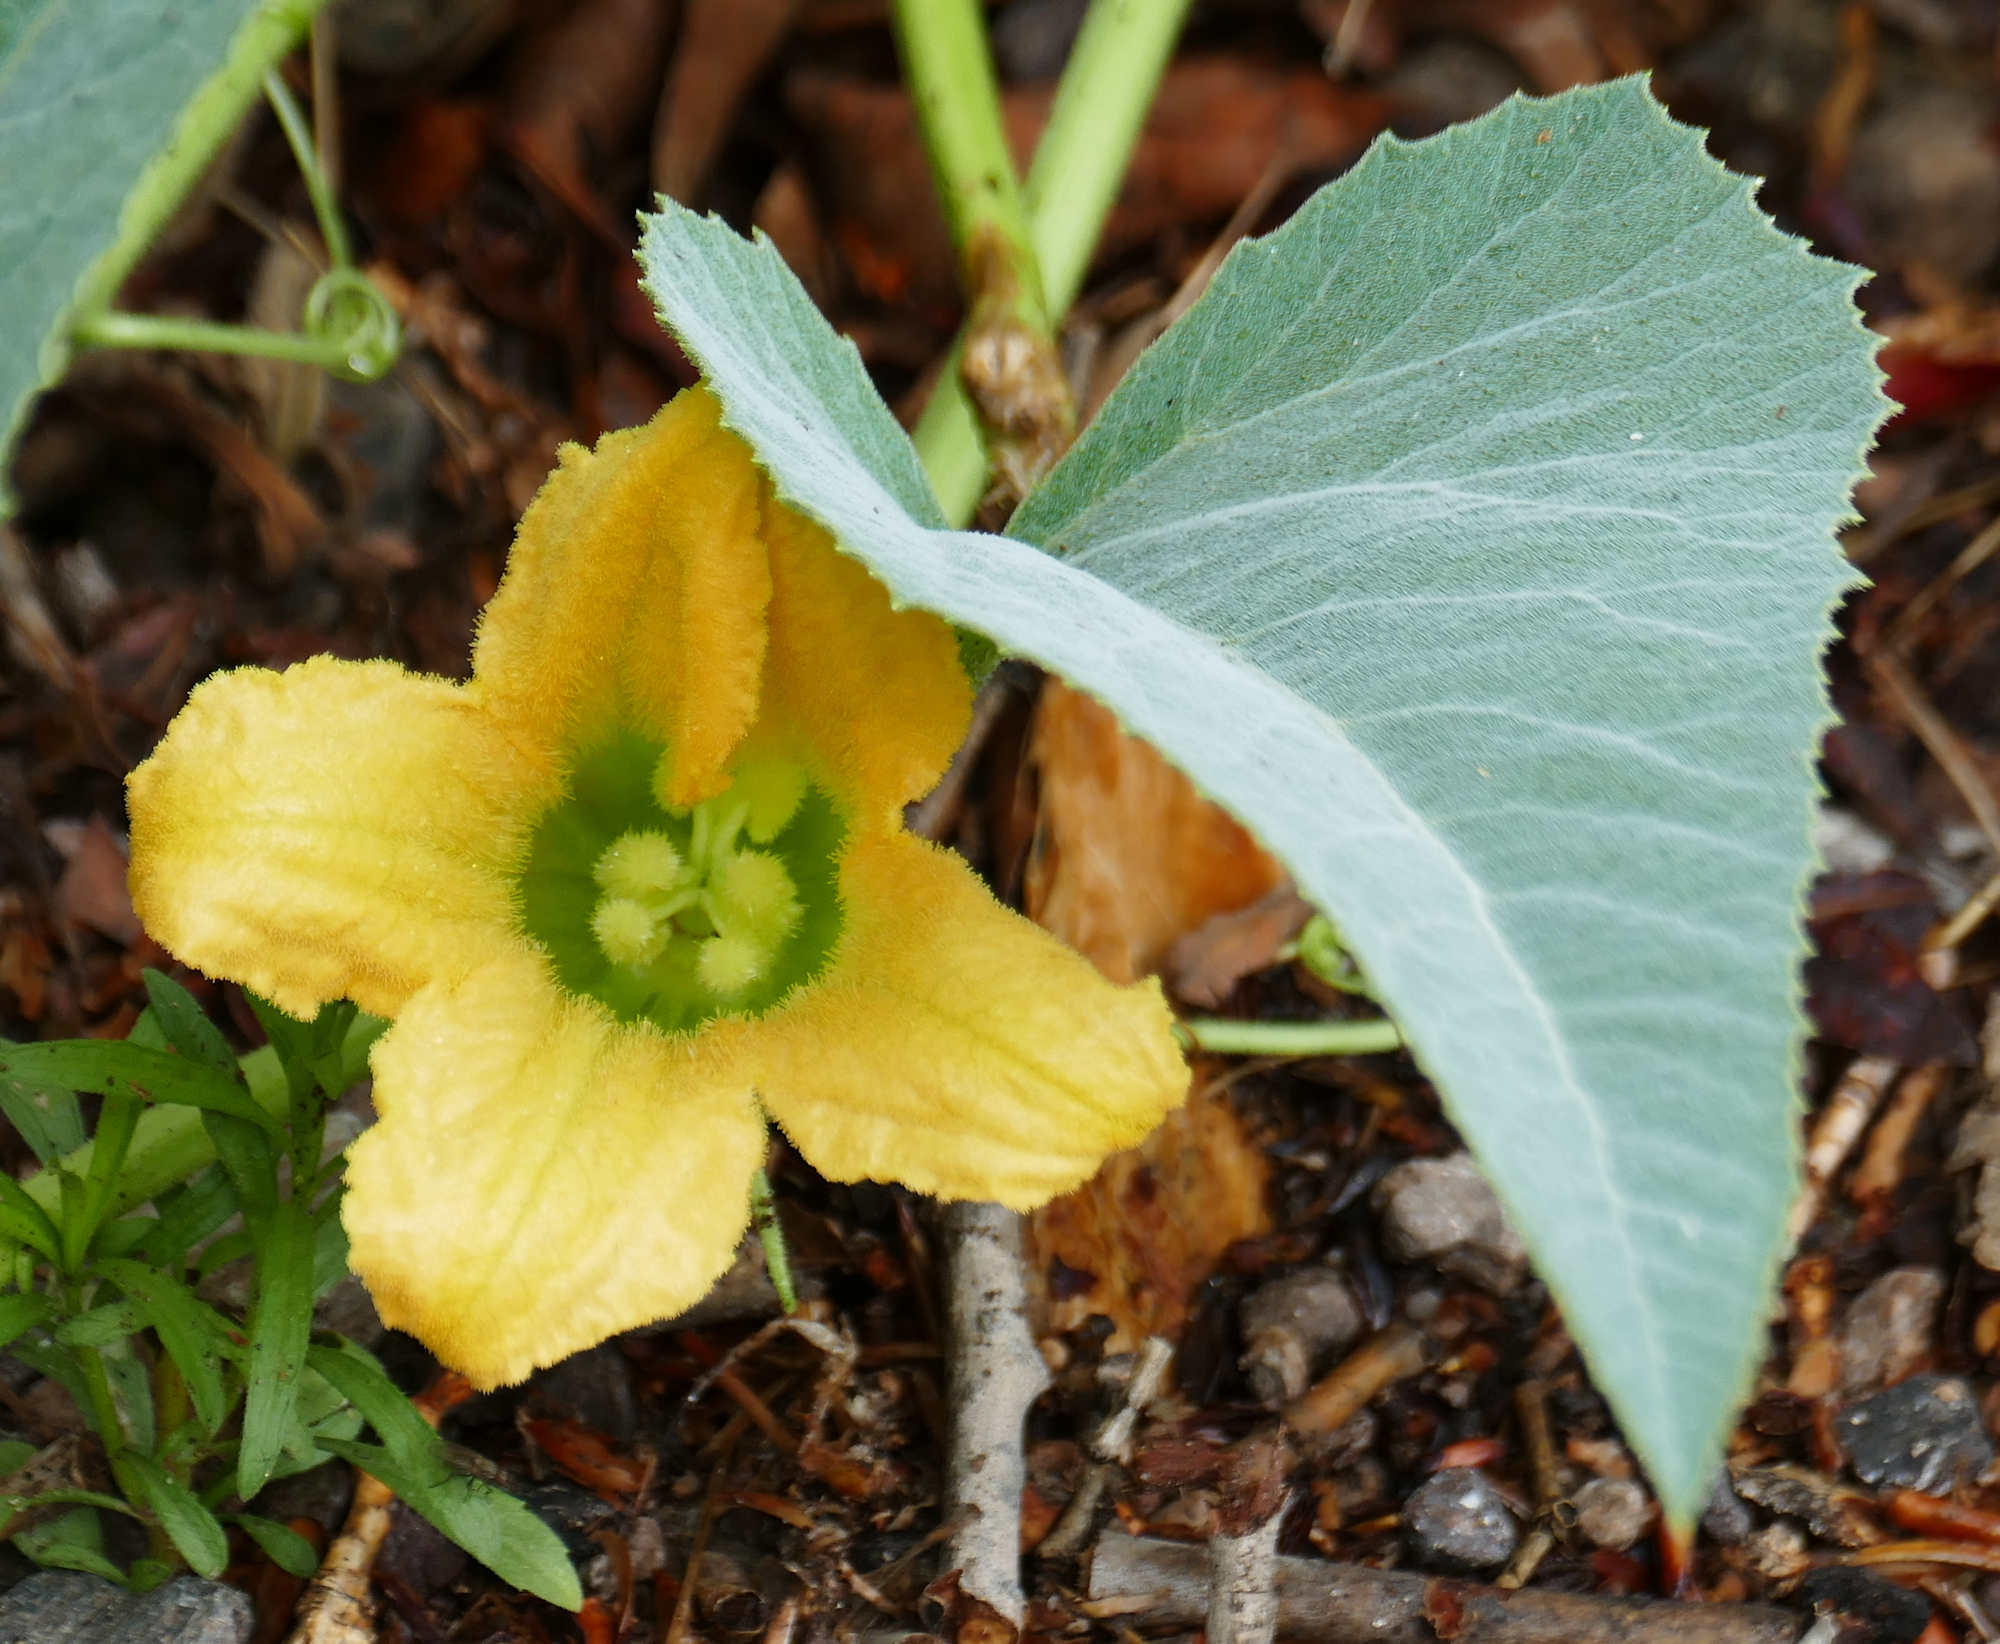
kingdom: Plantae
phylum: Tracheophyta
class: Magnoliopsida
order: Cucurbitales
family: Cucurbitaceae
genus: Cucurbita
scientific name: Cucurbita foetidissima
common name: Buffalo gourd
